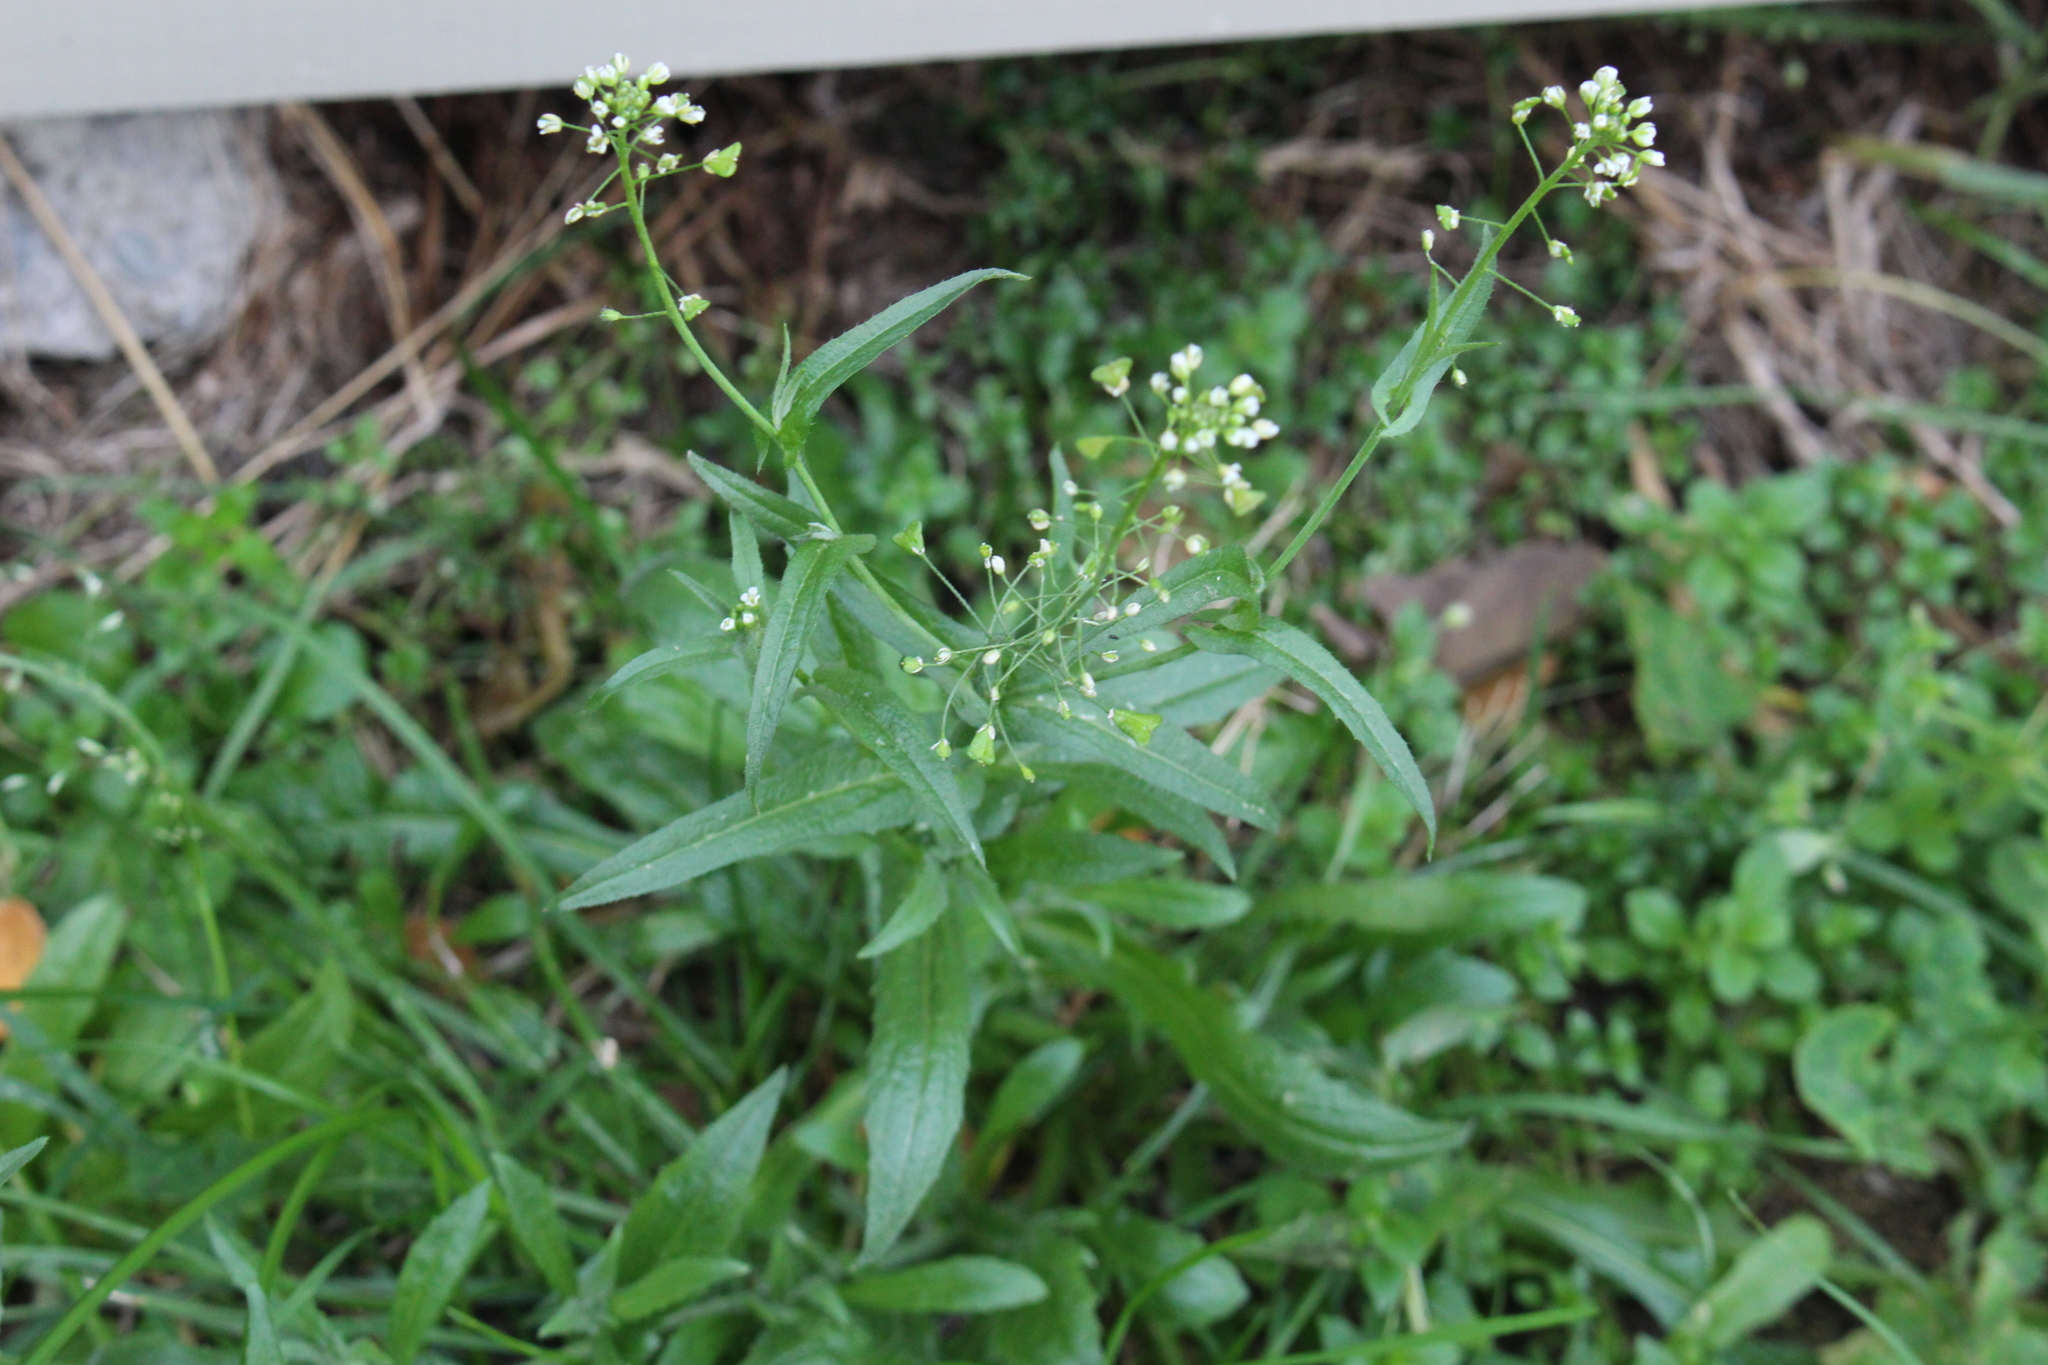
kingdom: Plantae
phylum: Tracheophyta
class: Magnoliopsida
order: Brassicales
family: Brassicaceae
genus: Capsella
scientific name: Capsella bursa-pastoris
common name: Shepherd's purse
